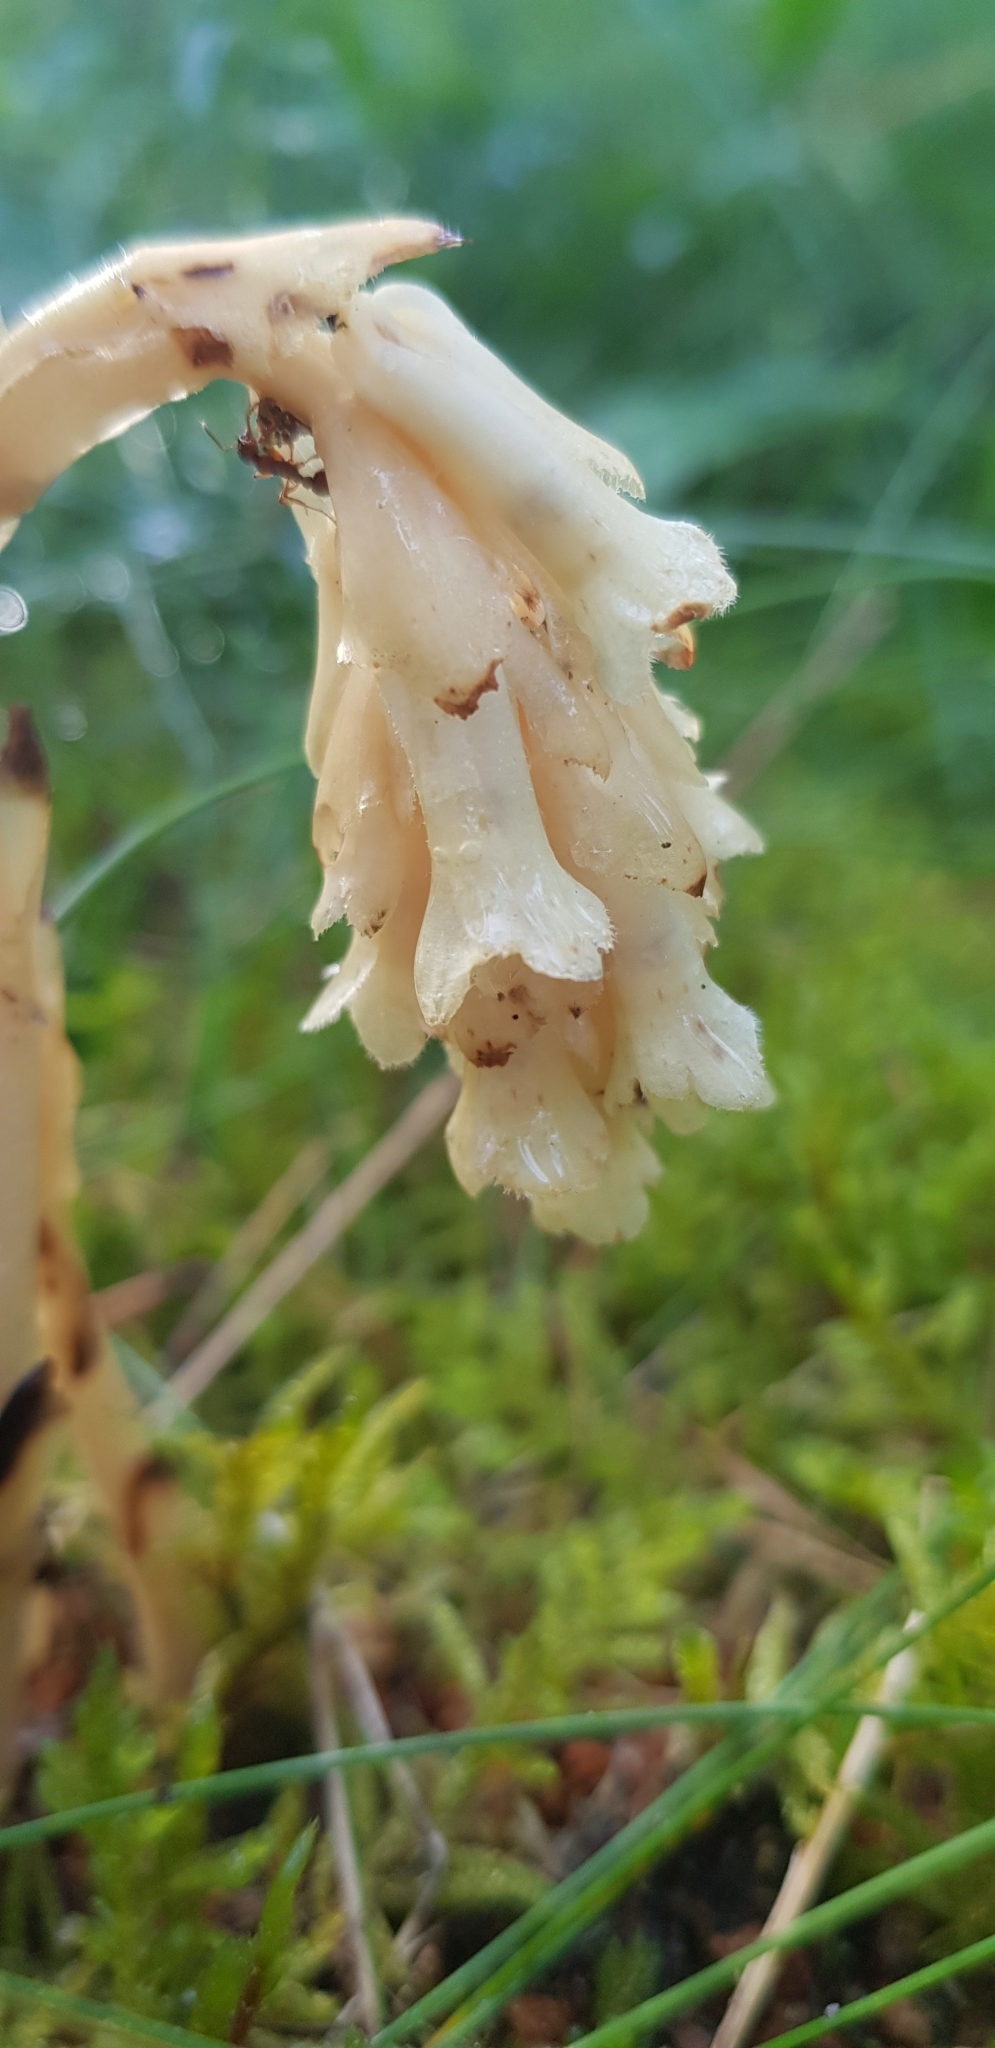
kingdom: Plantae
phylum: Tracheophyta
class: Magnoliopsida
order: Ericales
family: Ericaceae
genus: Hypopitys
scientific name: Hypopitys monotropa
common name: Yellow bird's-nest
